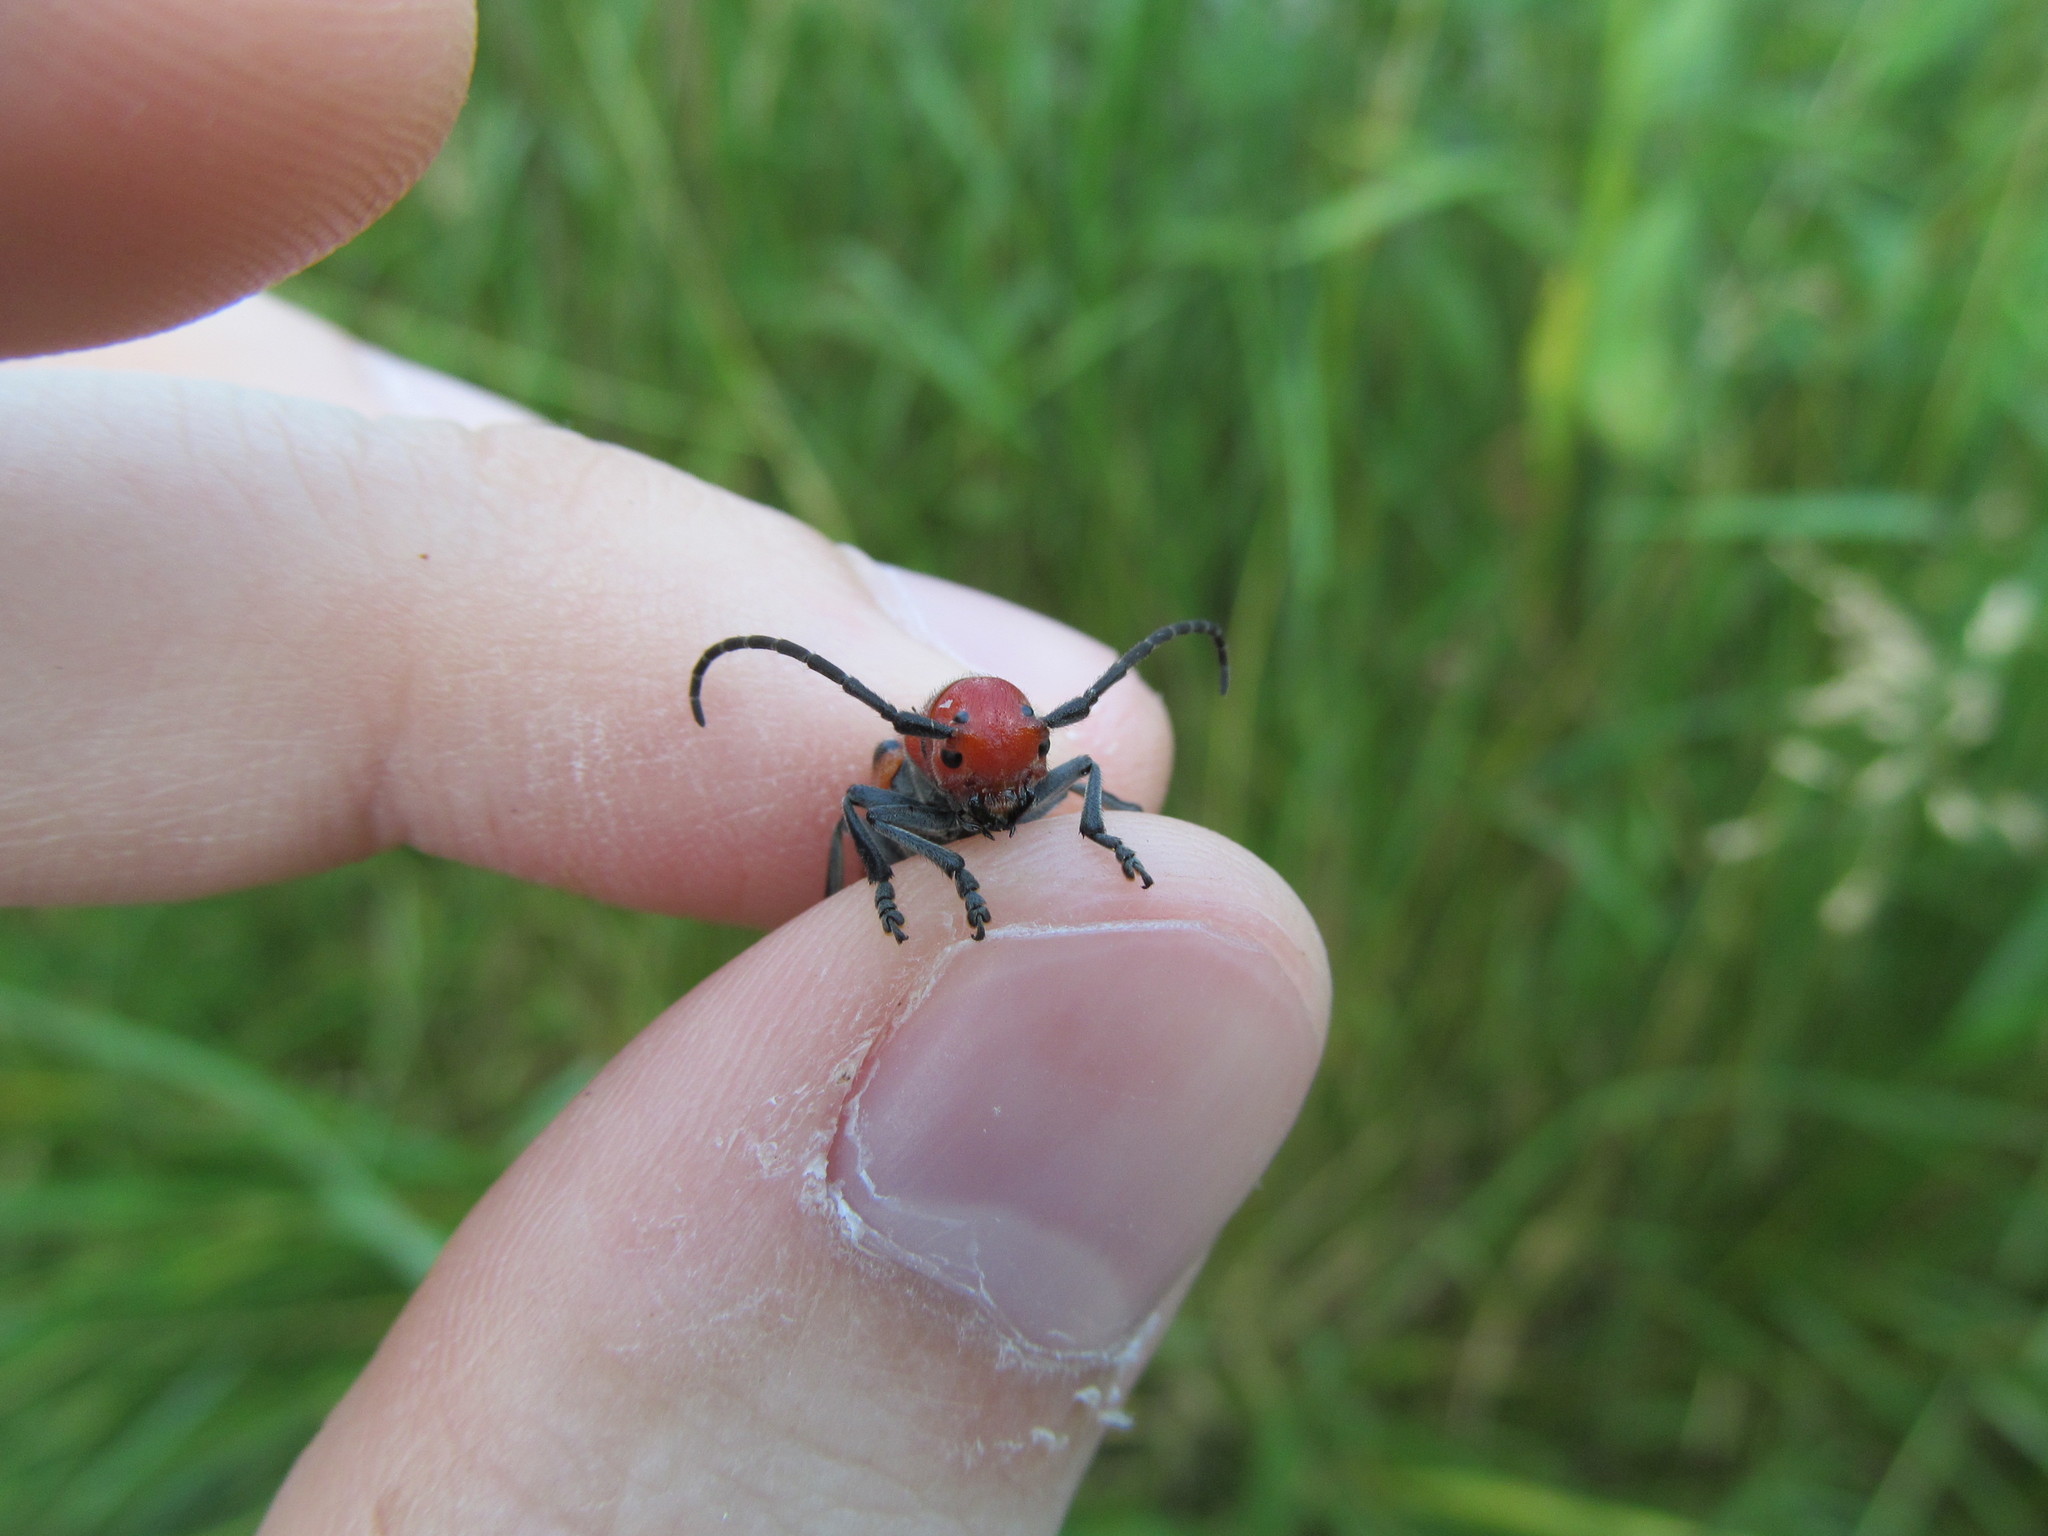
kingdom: Animalia
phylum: Arthropoda
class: Insecta
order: Coleoptera
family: Cerambycidae
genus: Tetraopes
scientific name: Tetraopes tetrophthalmus
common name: Red milkweed beetle
